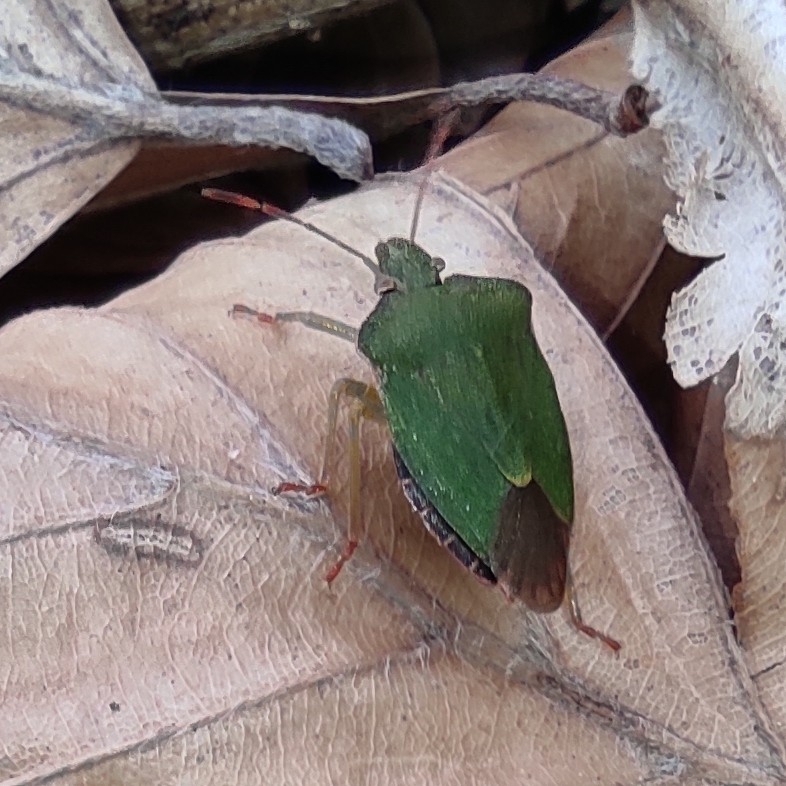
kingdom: Animalia
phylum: Arthropoda
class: Insecta
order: Hemiptera
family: Pentatomidae
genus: Palomena
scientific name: Palomena prasina
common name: Green shieldbug
